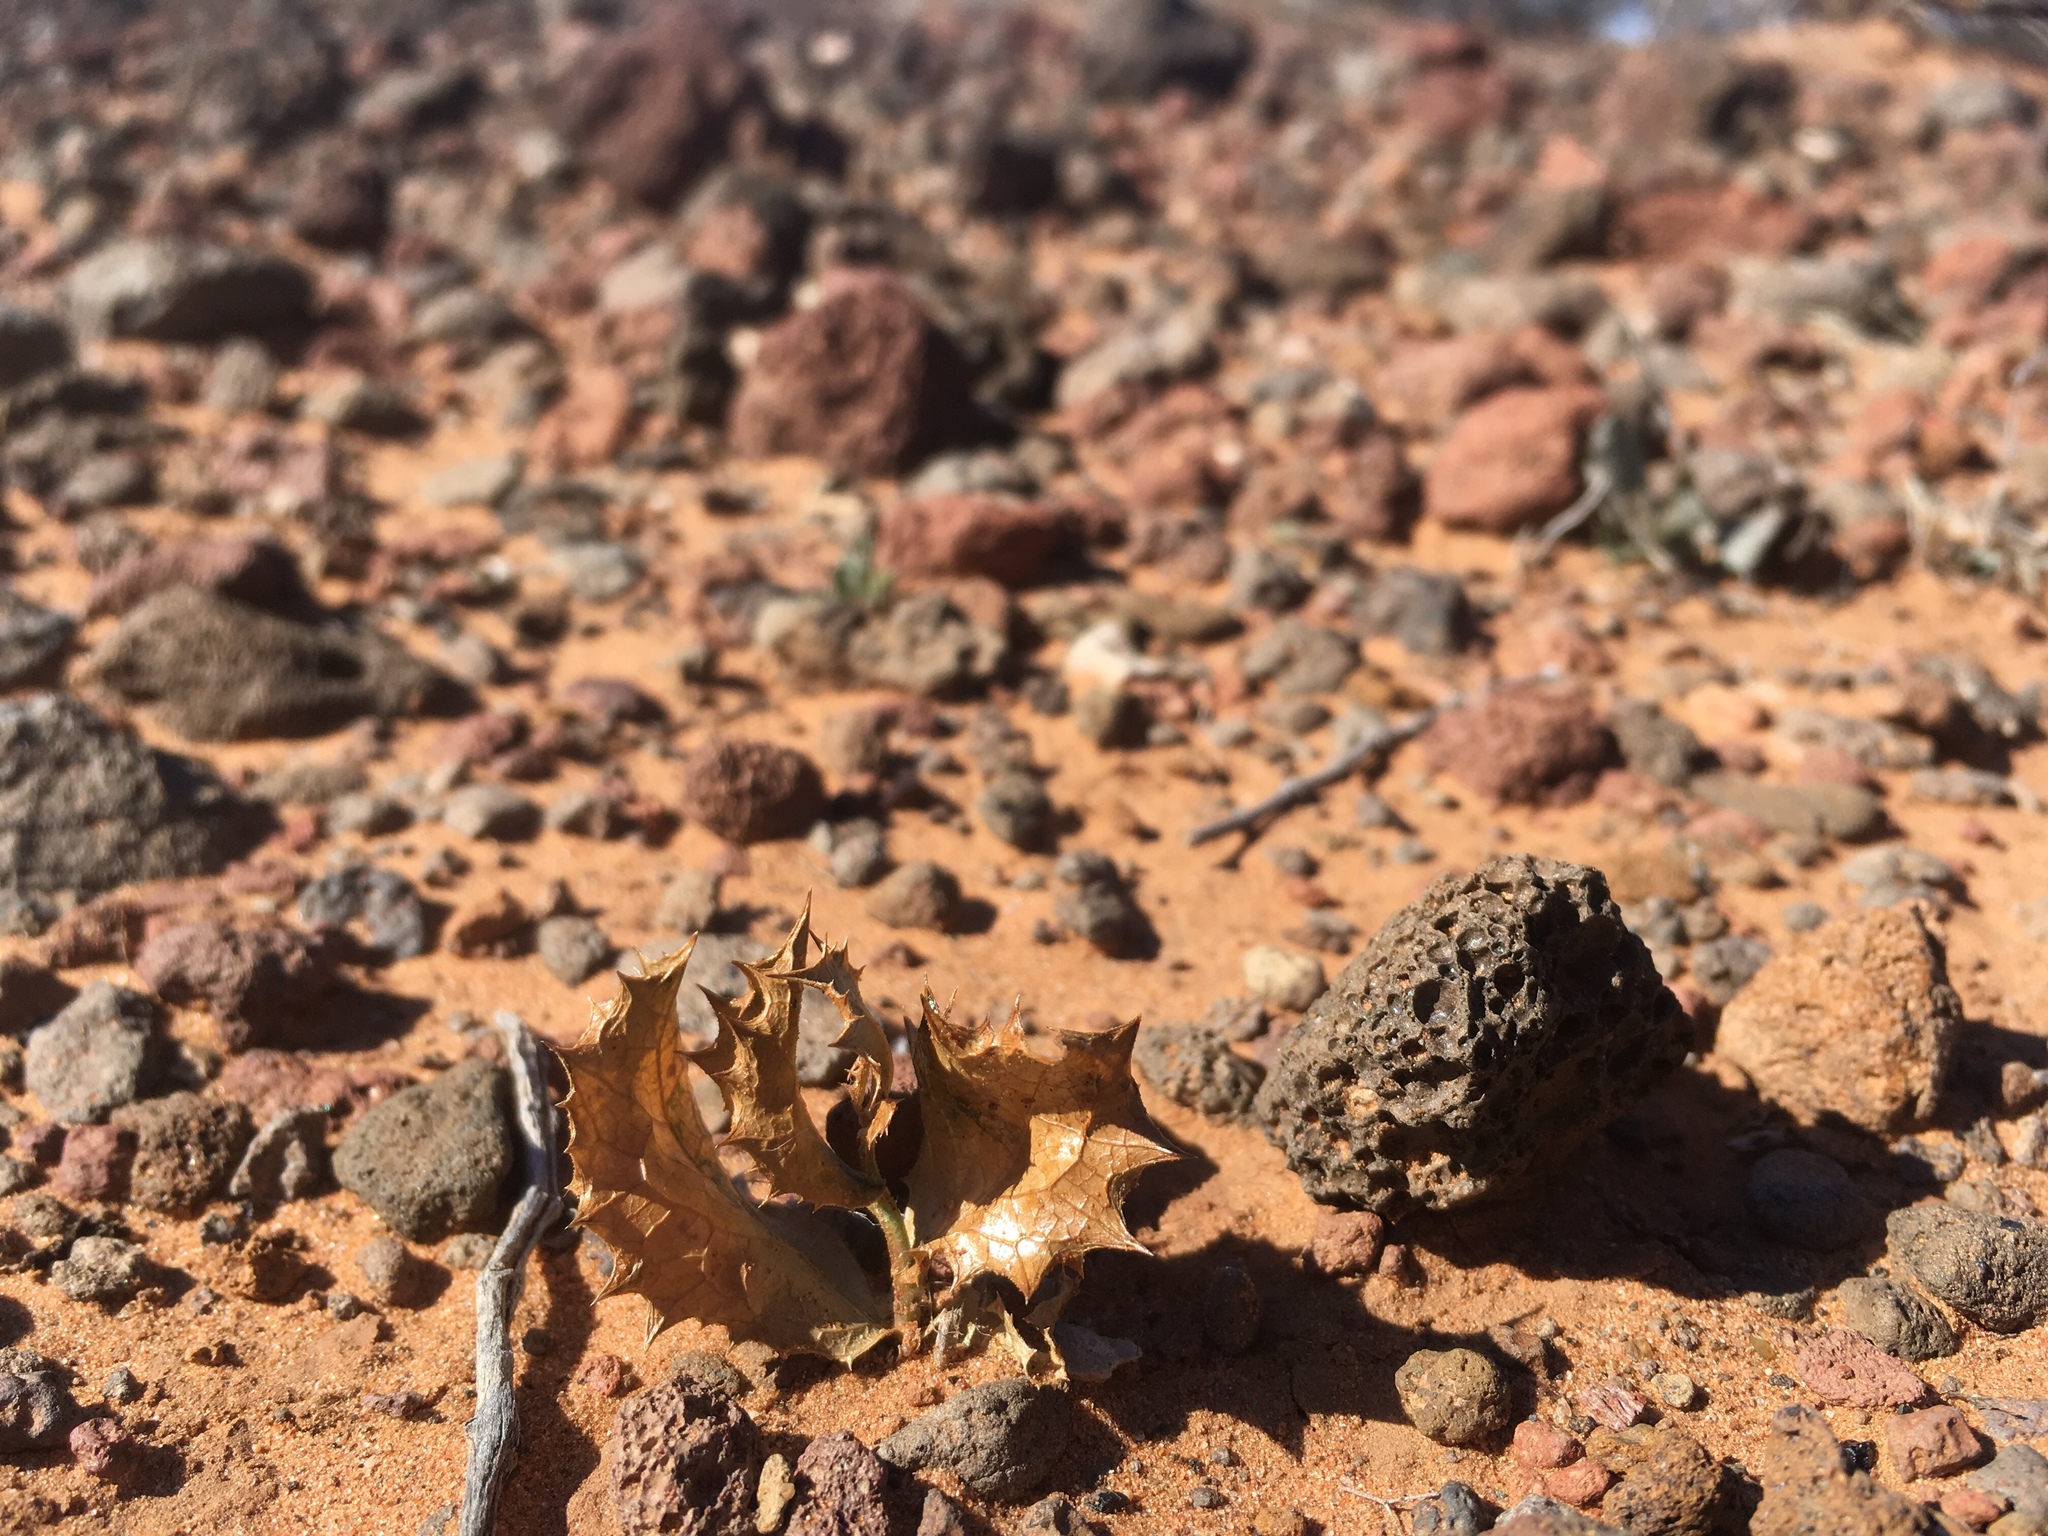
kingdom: Plantae
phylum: Tracheophyta
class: Magnoliopsida
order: Asterales
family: Asteraceae
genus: Acourtia
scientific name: Acourtia nana
